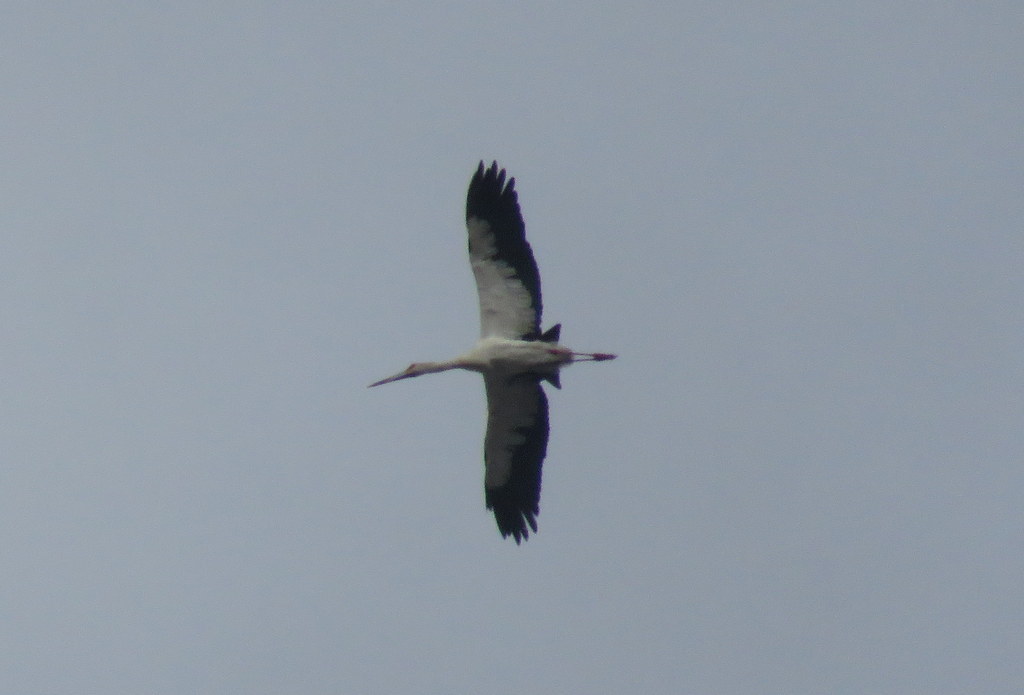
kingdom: Animalia
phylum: Chordata
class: Aves
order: Ciconiiformes
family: Ciconiidae
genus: Ciconia
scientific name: Ciconia maguari
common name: Maguari stork
